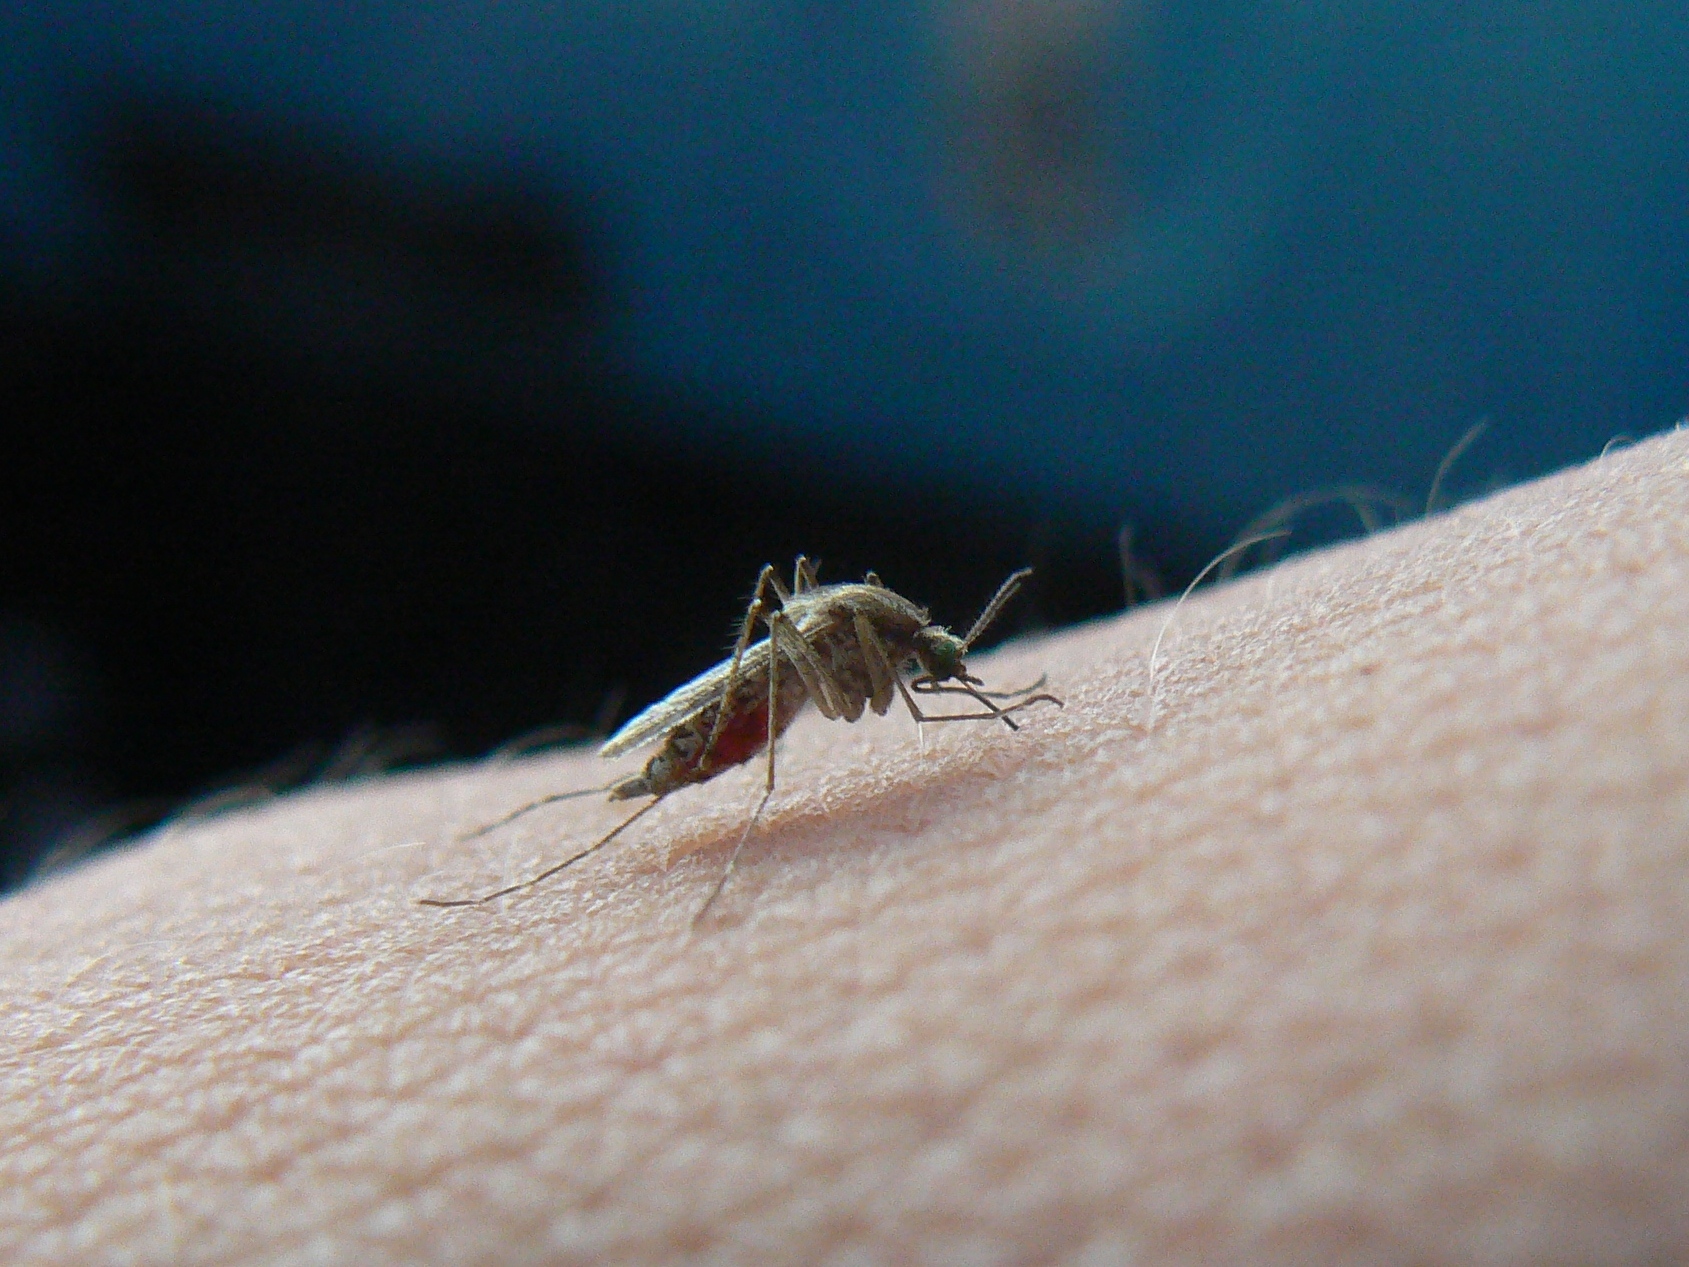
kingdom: Animalia
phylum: Arthropoda
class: Insecta
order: Diptera
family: Culicidae
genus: Aedes
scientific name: Aedes caspius
